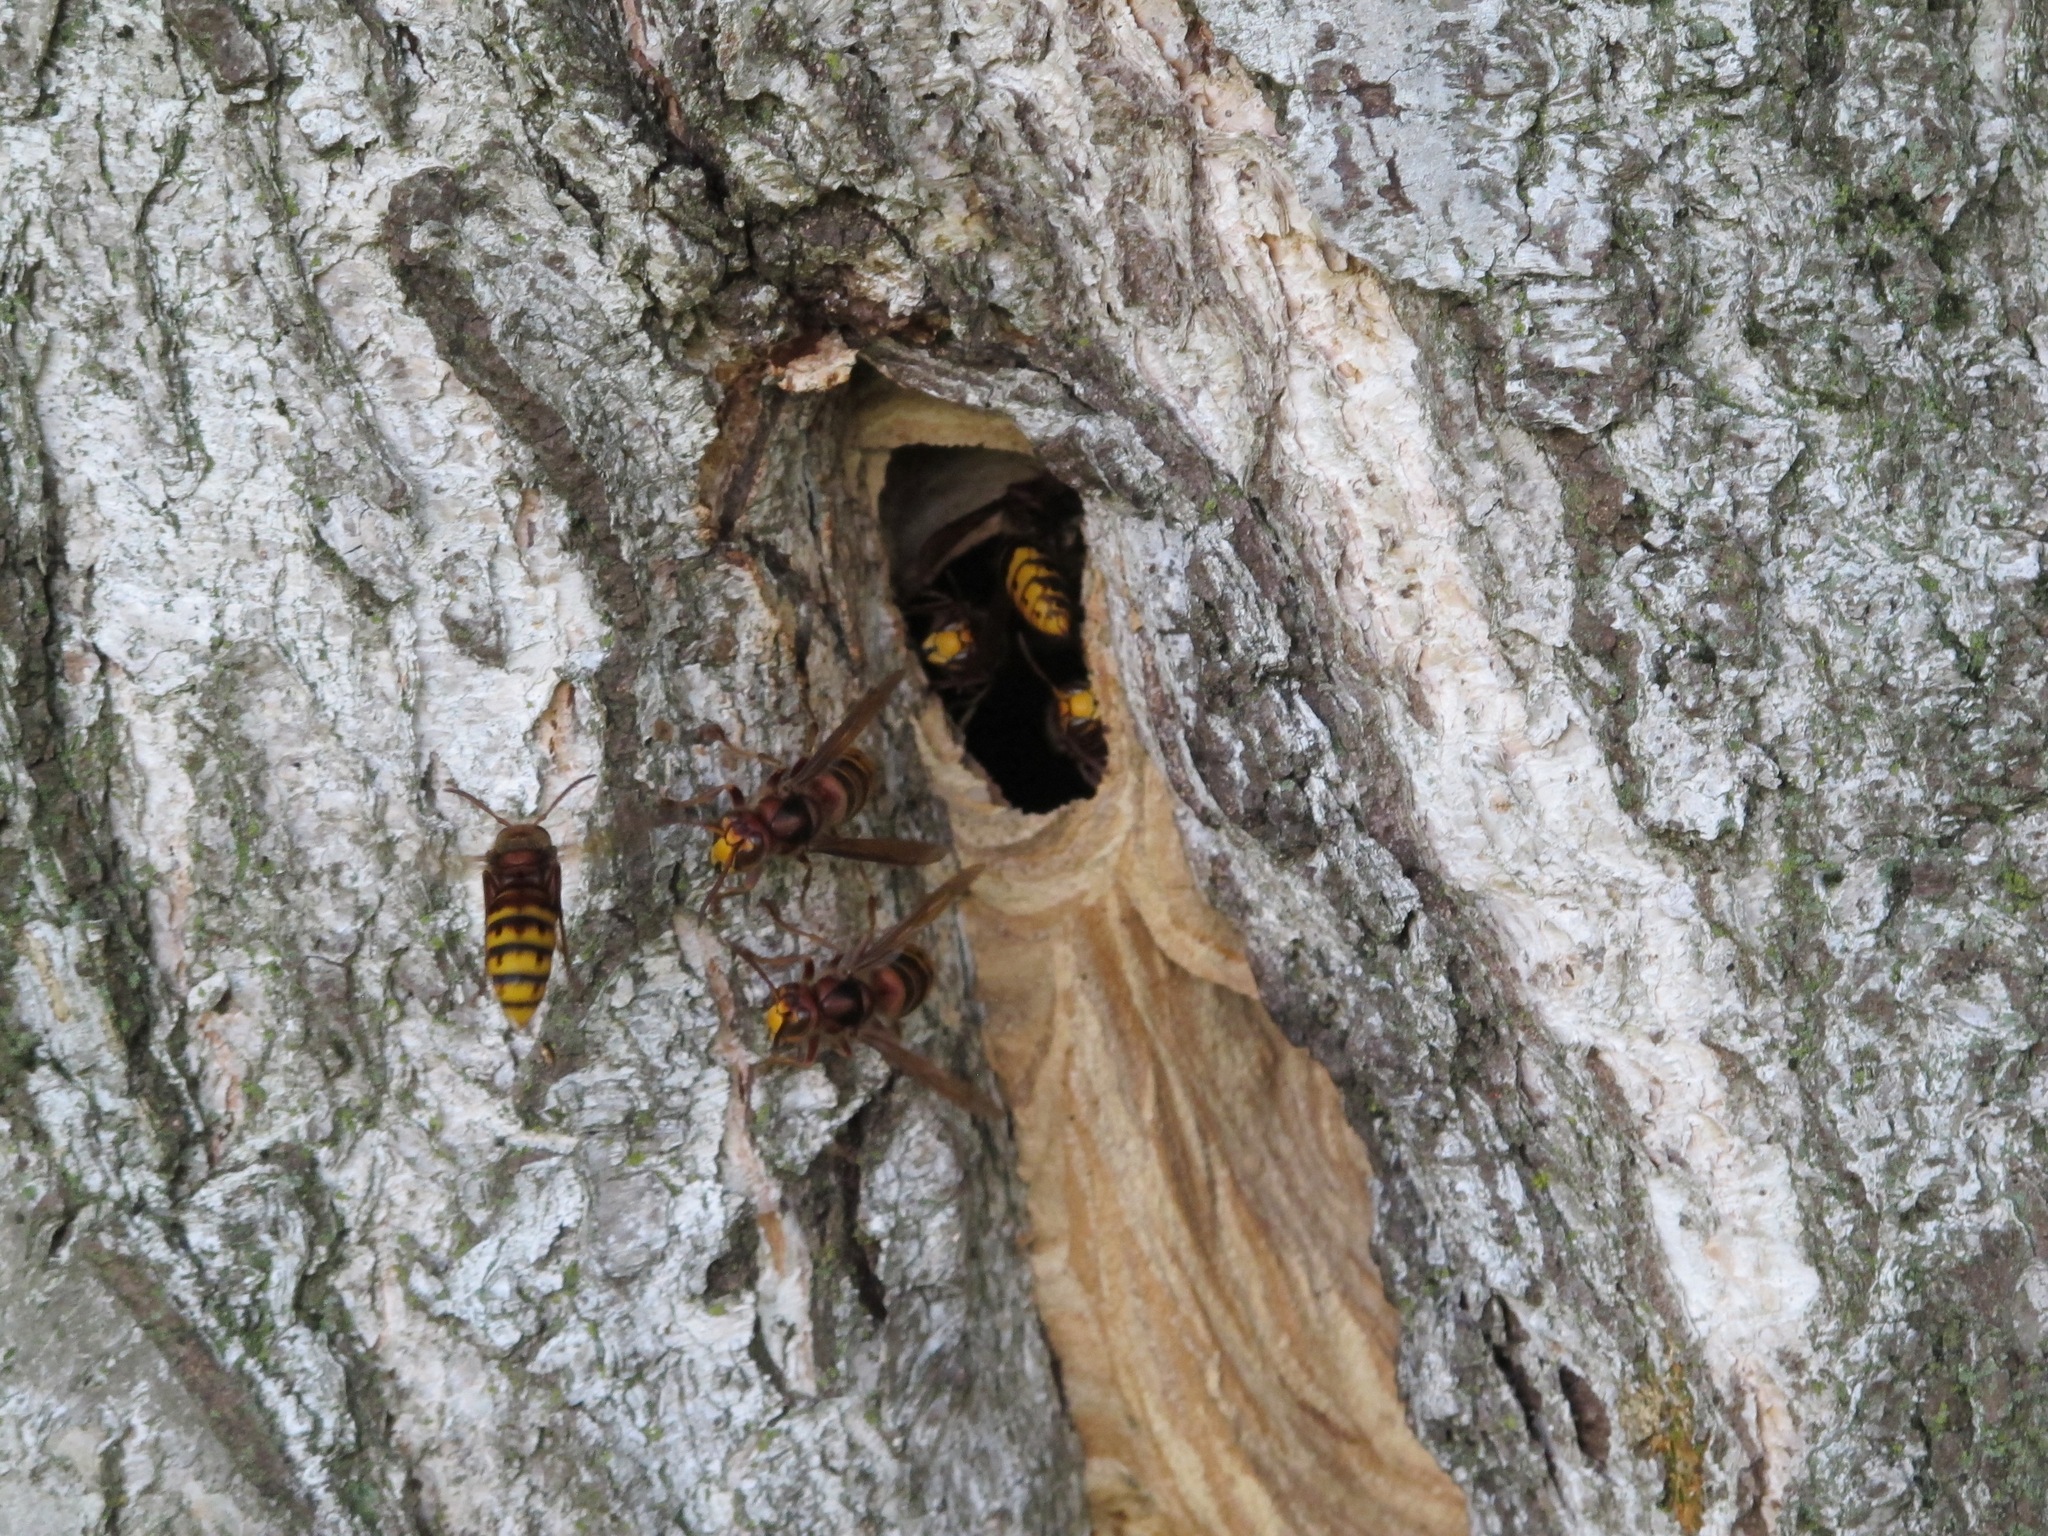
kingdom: Animalia
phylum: Arthropoda
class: Insecta
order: Hymenoptera
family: Vespidae
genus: Vespa
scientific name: Vespa crabro
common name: Hornet
